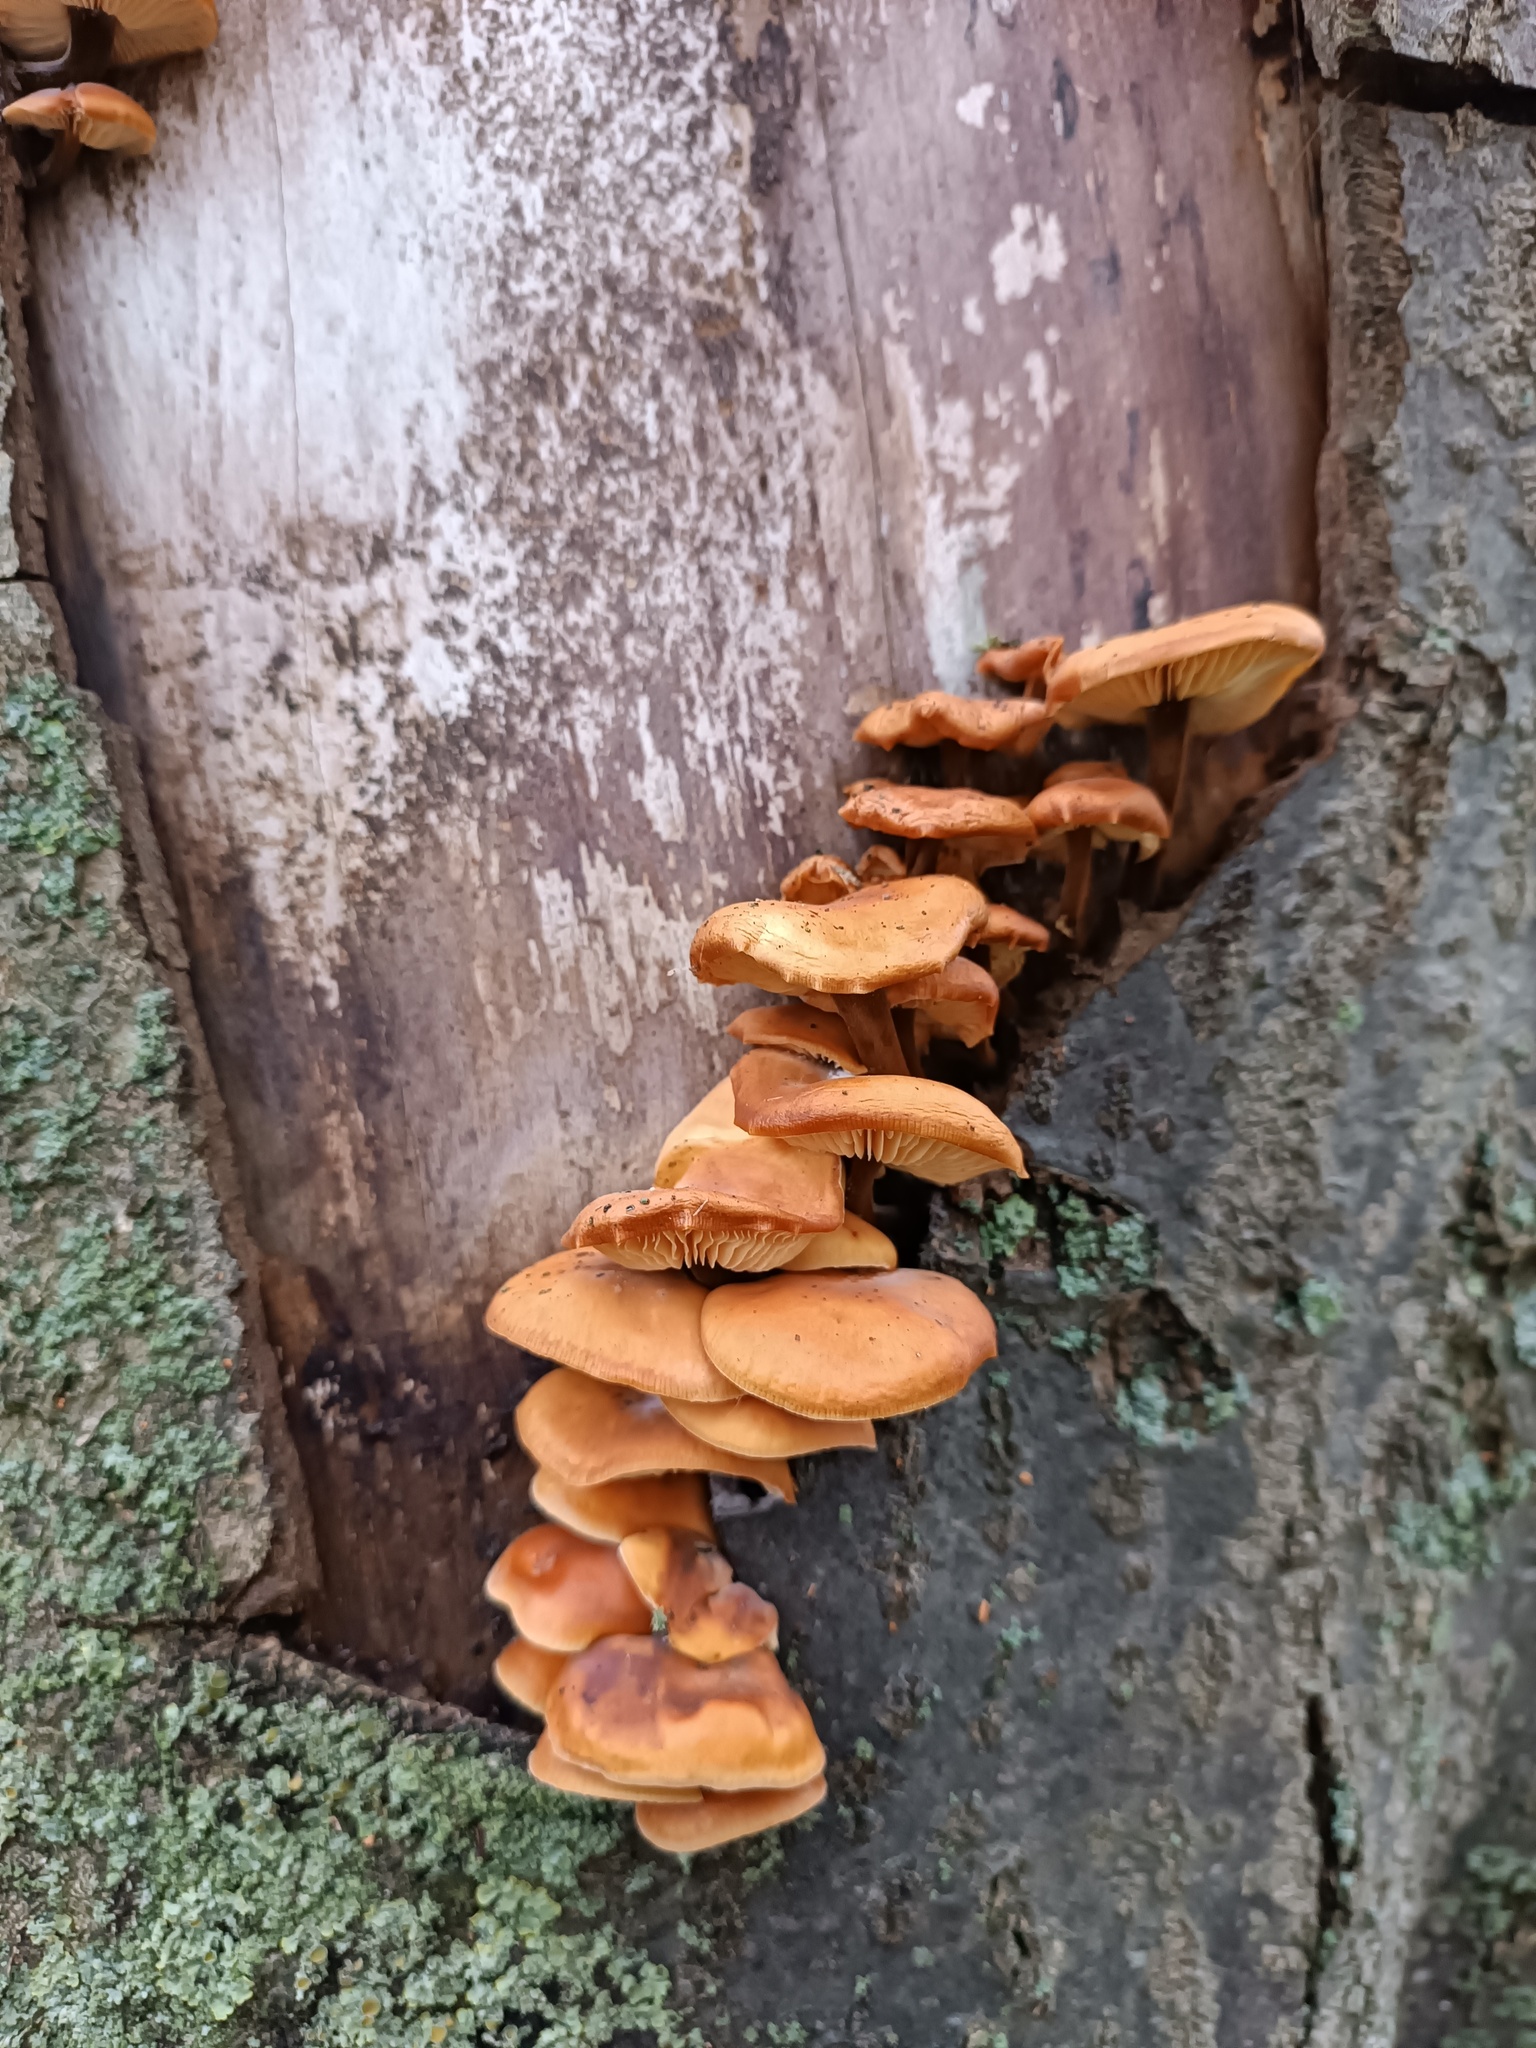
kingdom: Fungi
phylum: Basidiomycota
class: Agaricomycetes
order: Agaricales
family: Physalacriaceae
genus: Flammulina
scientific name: Flammulina
